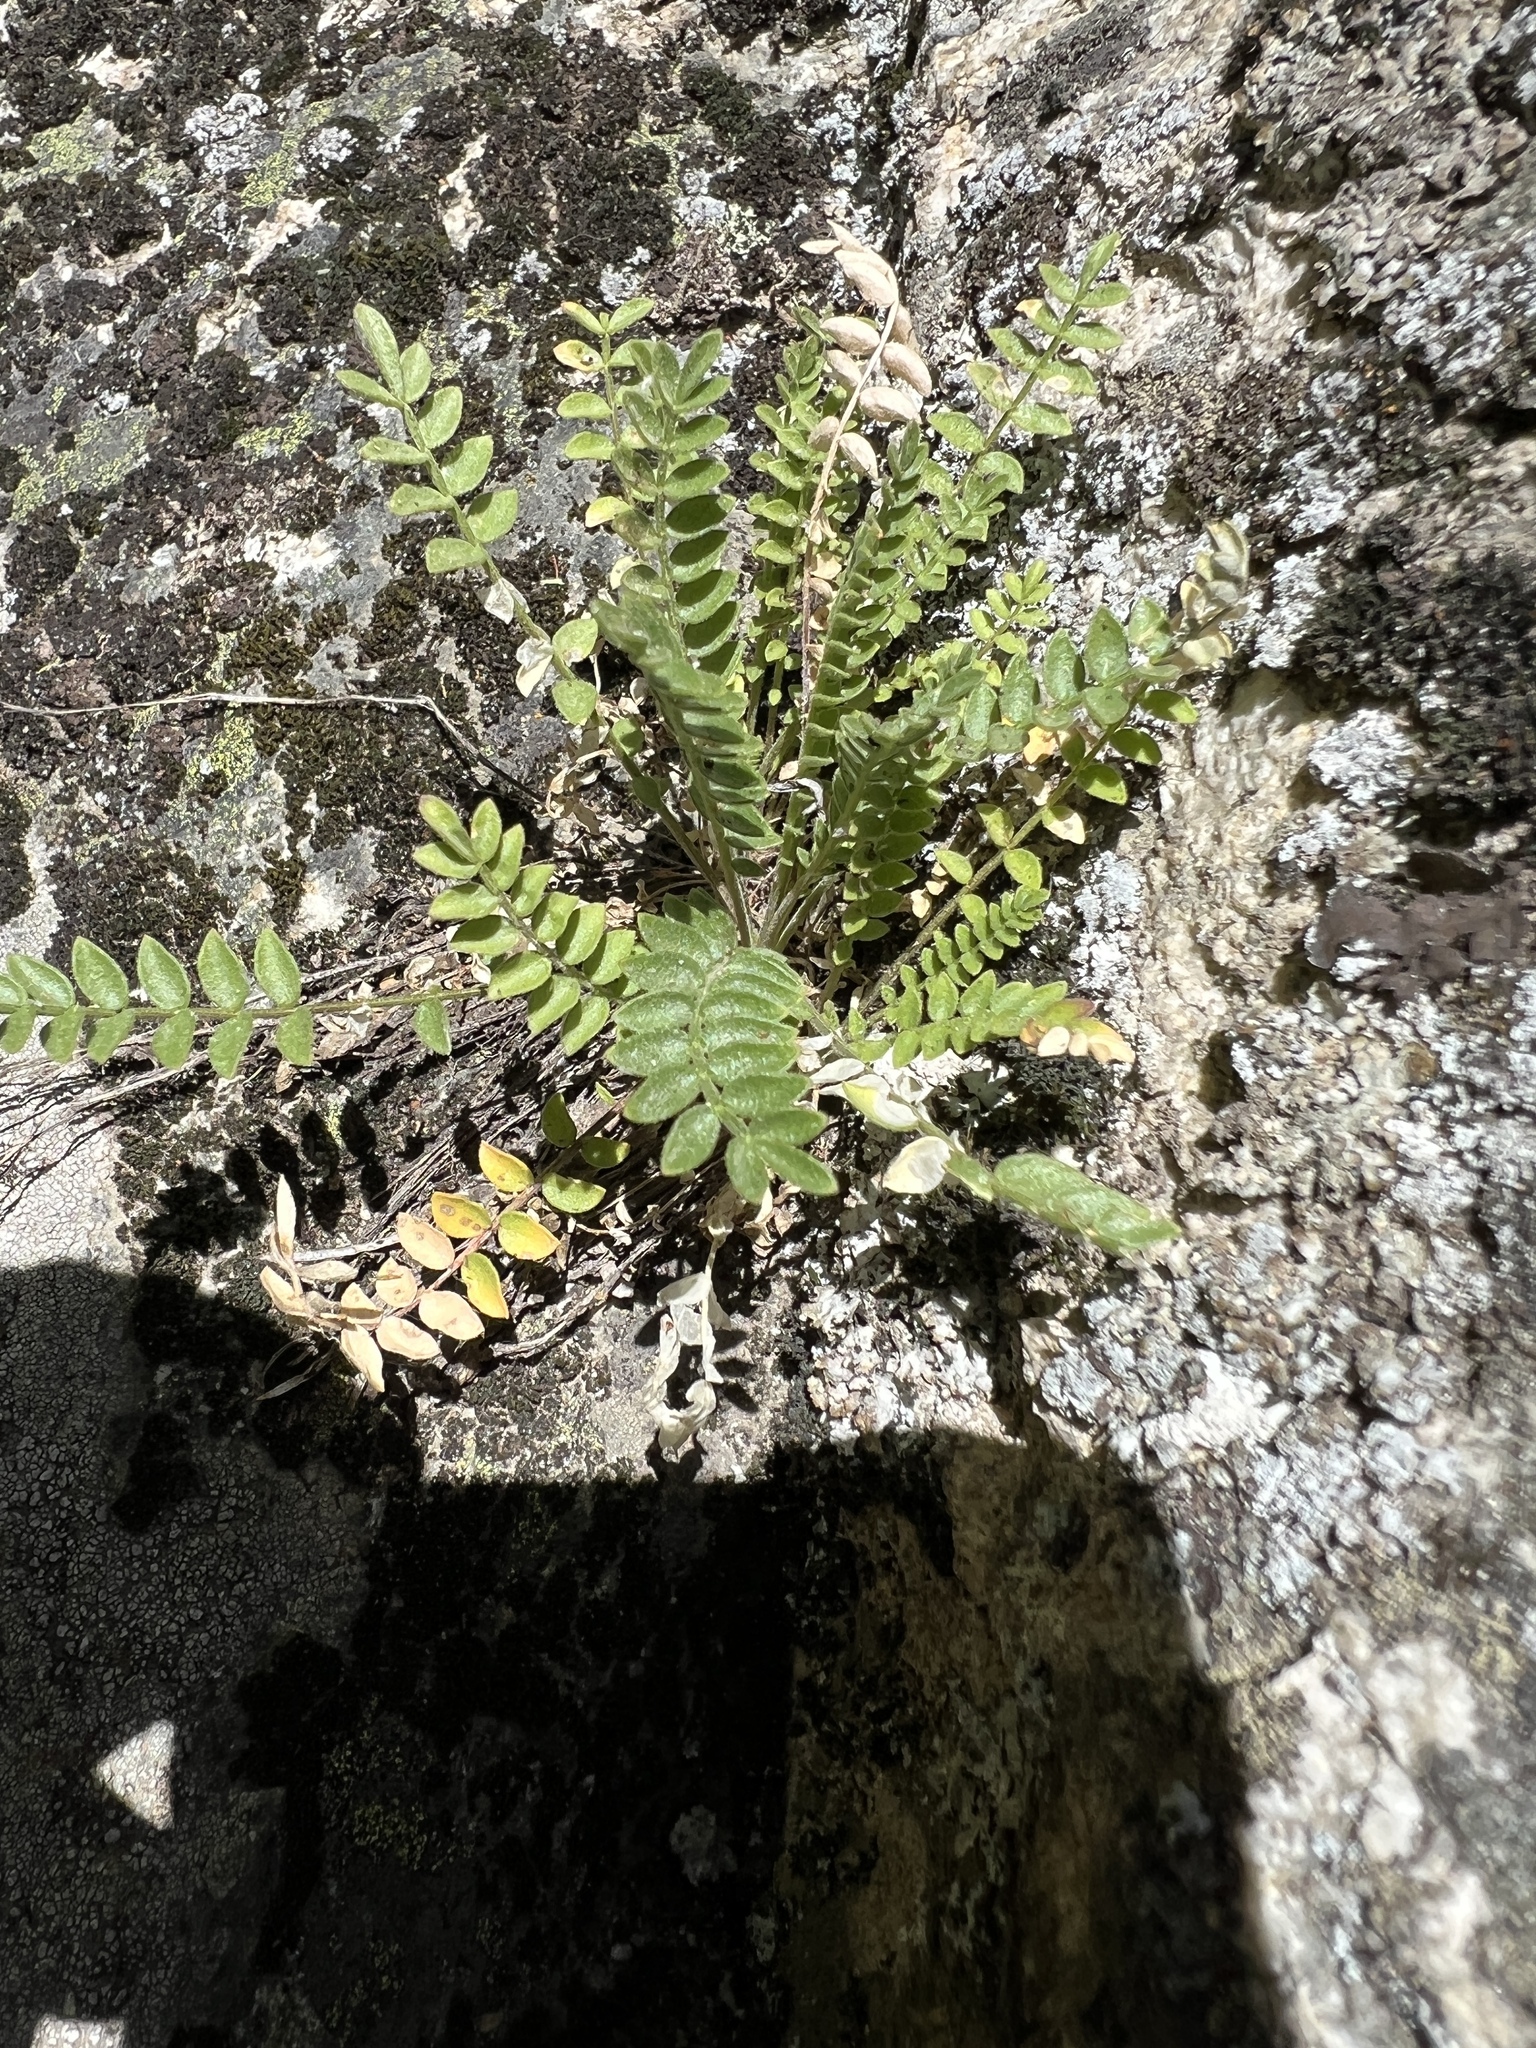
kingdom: Plantae
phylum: Tracheophyta
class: Magnoliopsida
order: Ericales
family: Polemoniaceae
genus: Polemonium
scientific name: Polemonium pulcherrimum
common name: Short jacob's-ladder
